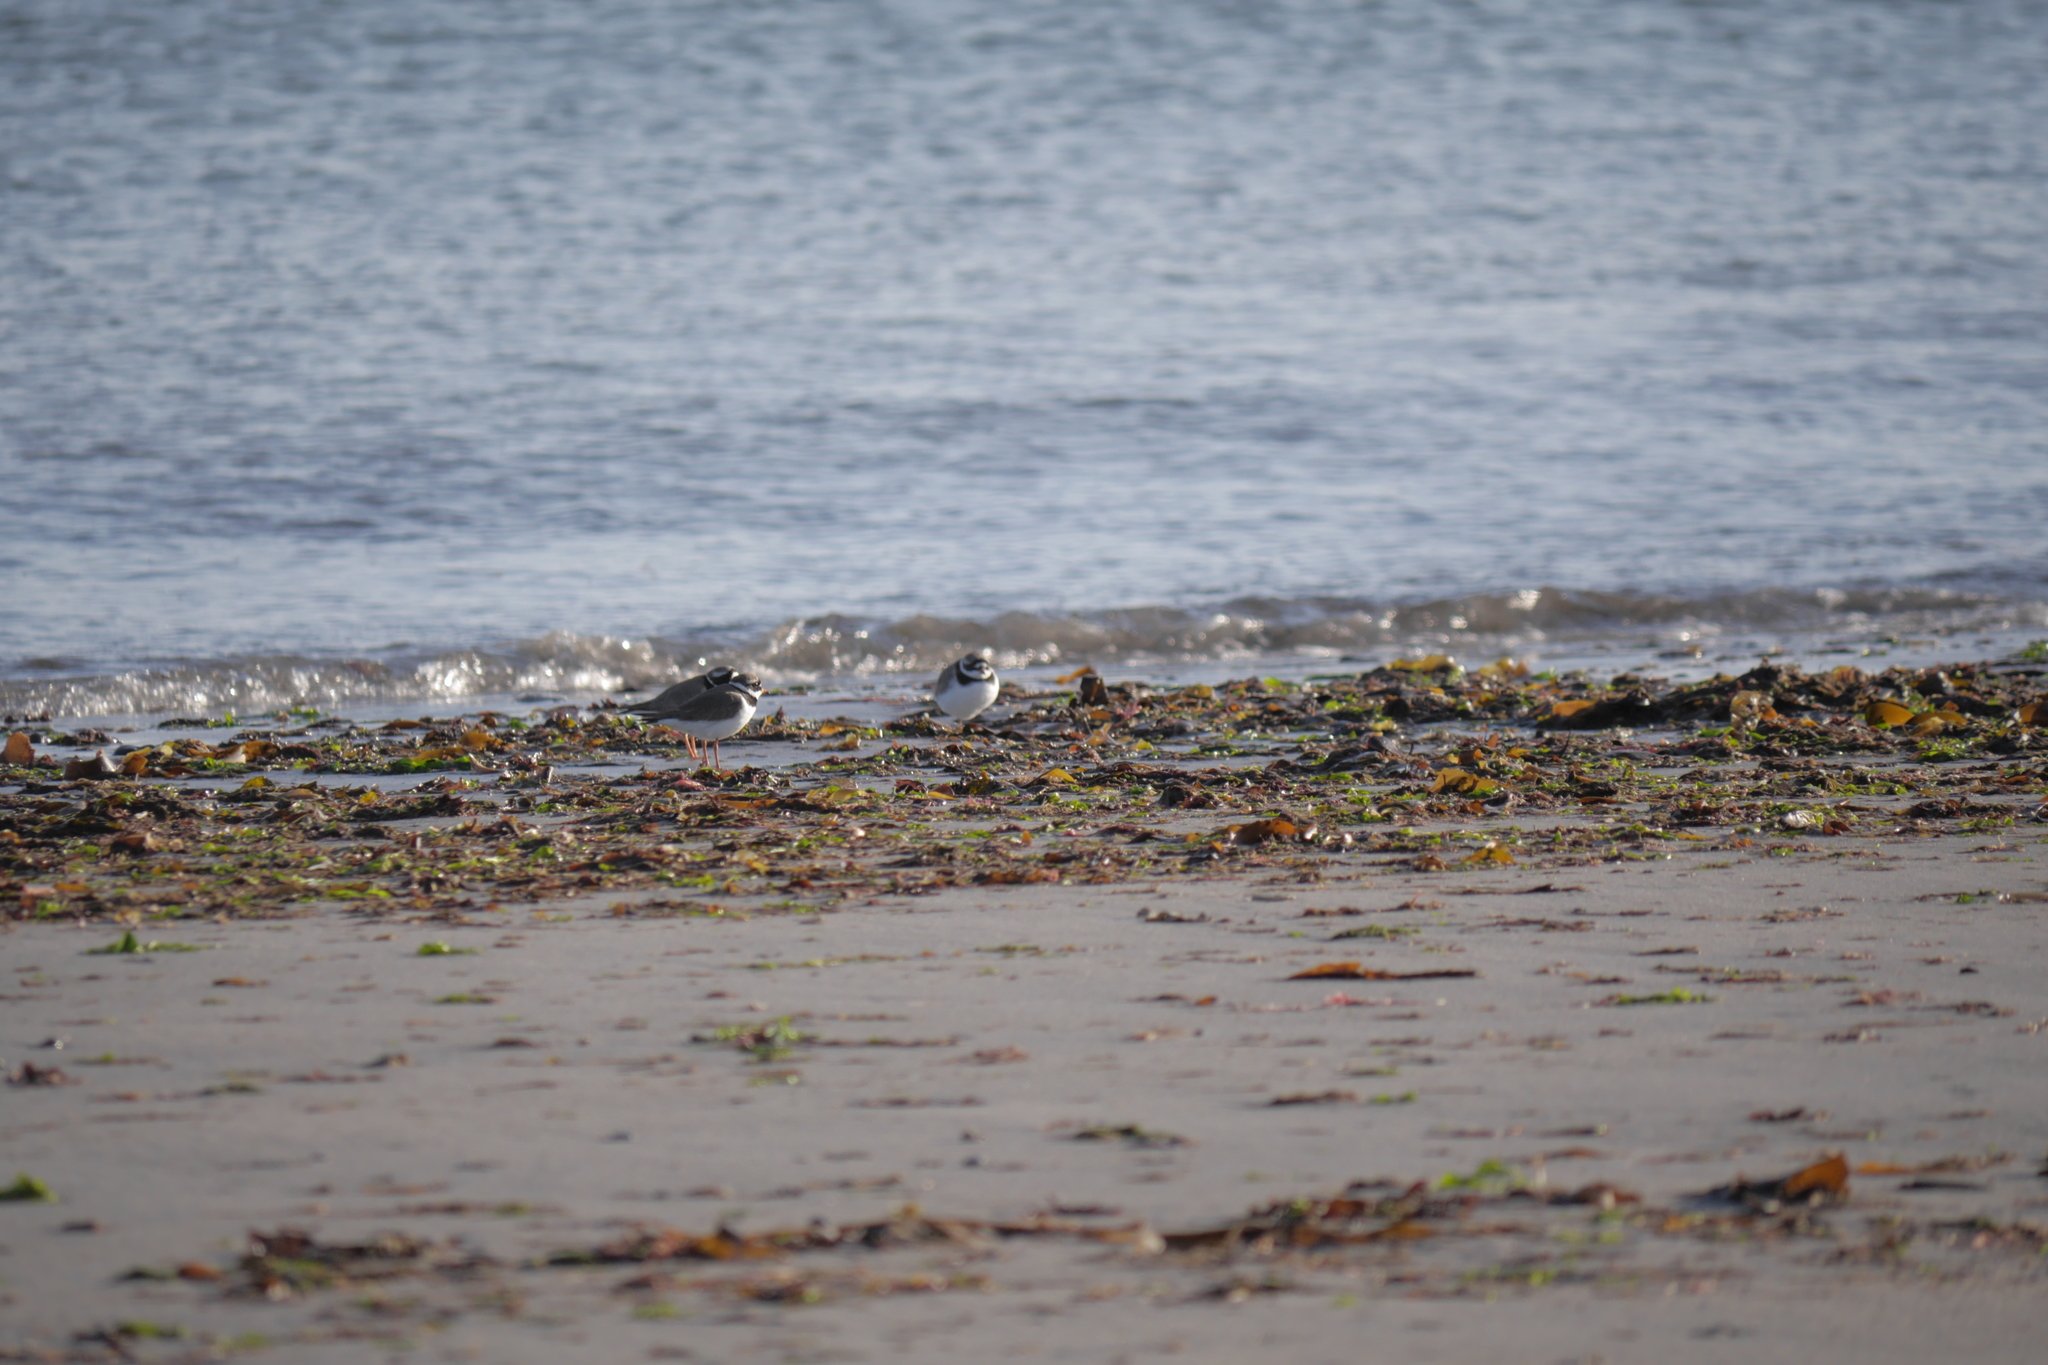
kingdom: Animalia
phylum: Chordata
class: Aves
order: Charadriiformes
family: Charadriidae
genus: Charadrius
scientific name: Charadrius hiaticula
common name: Common ringed plover
